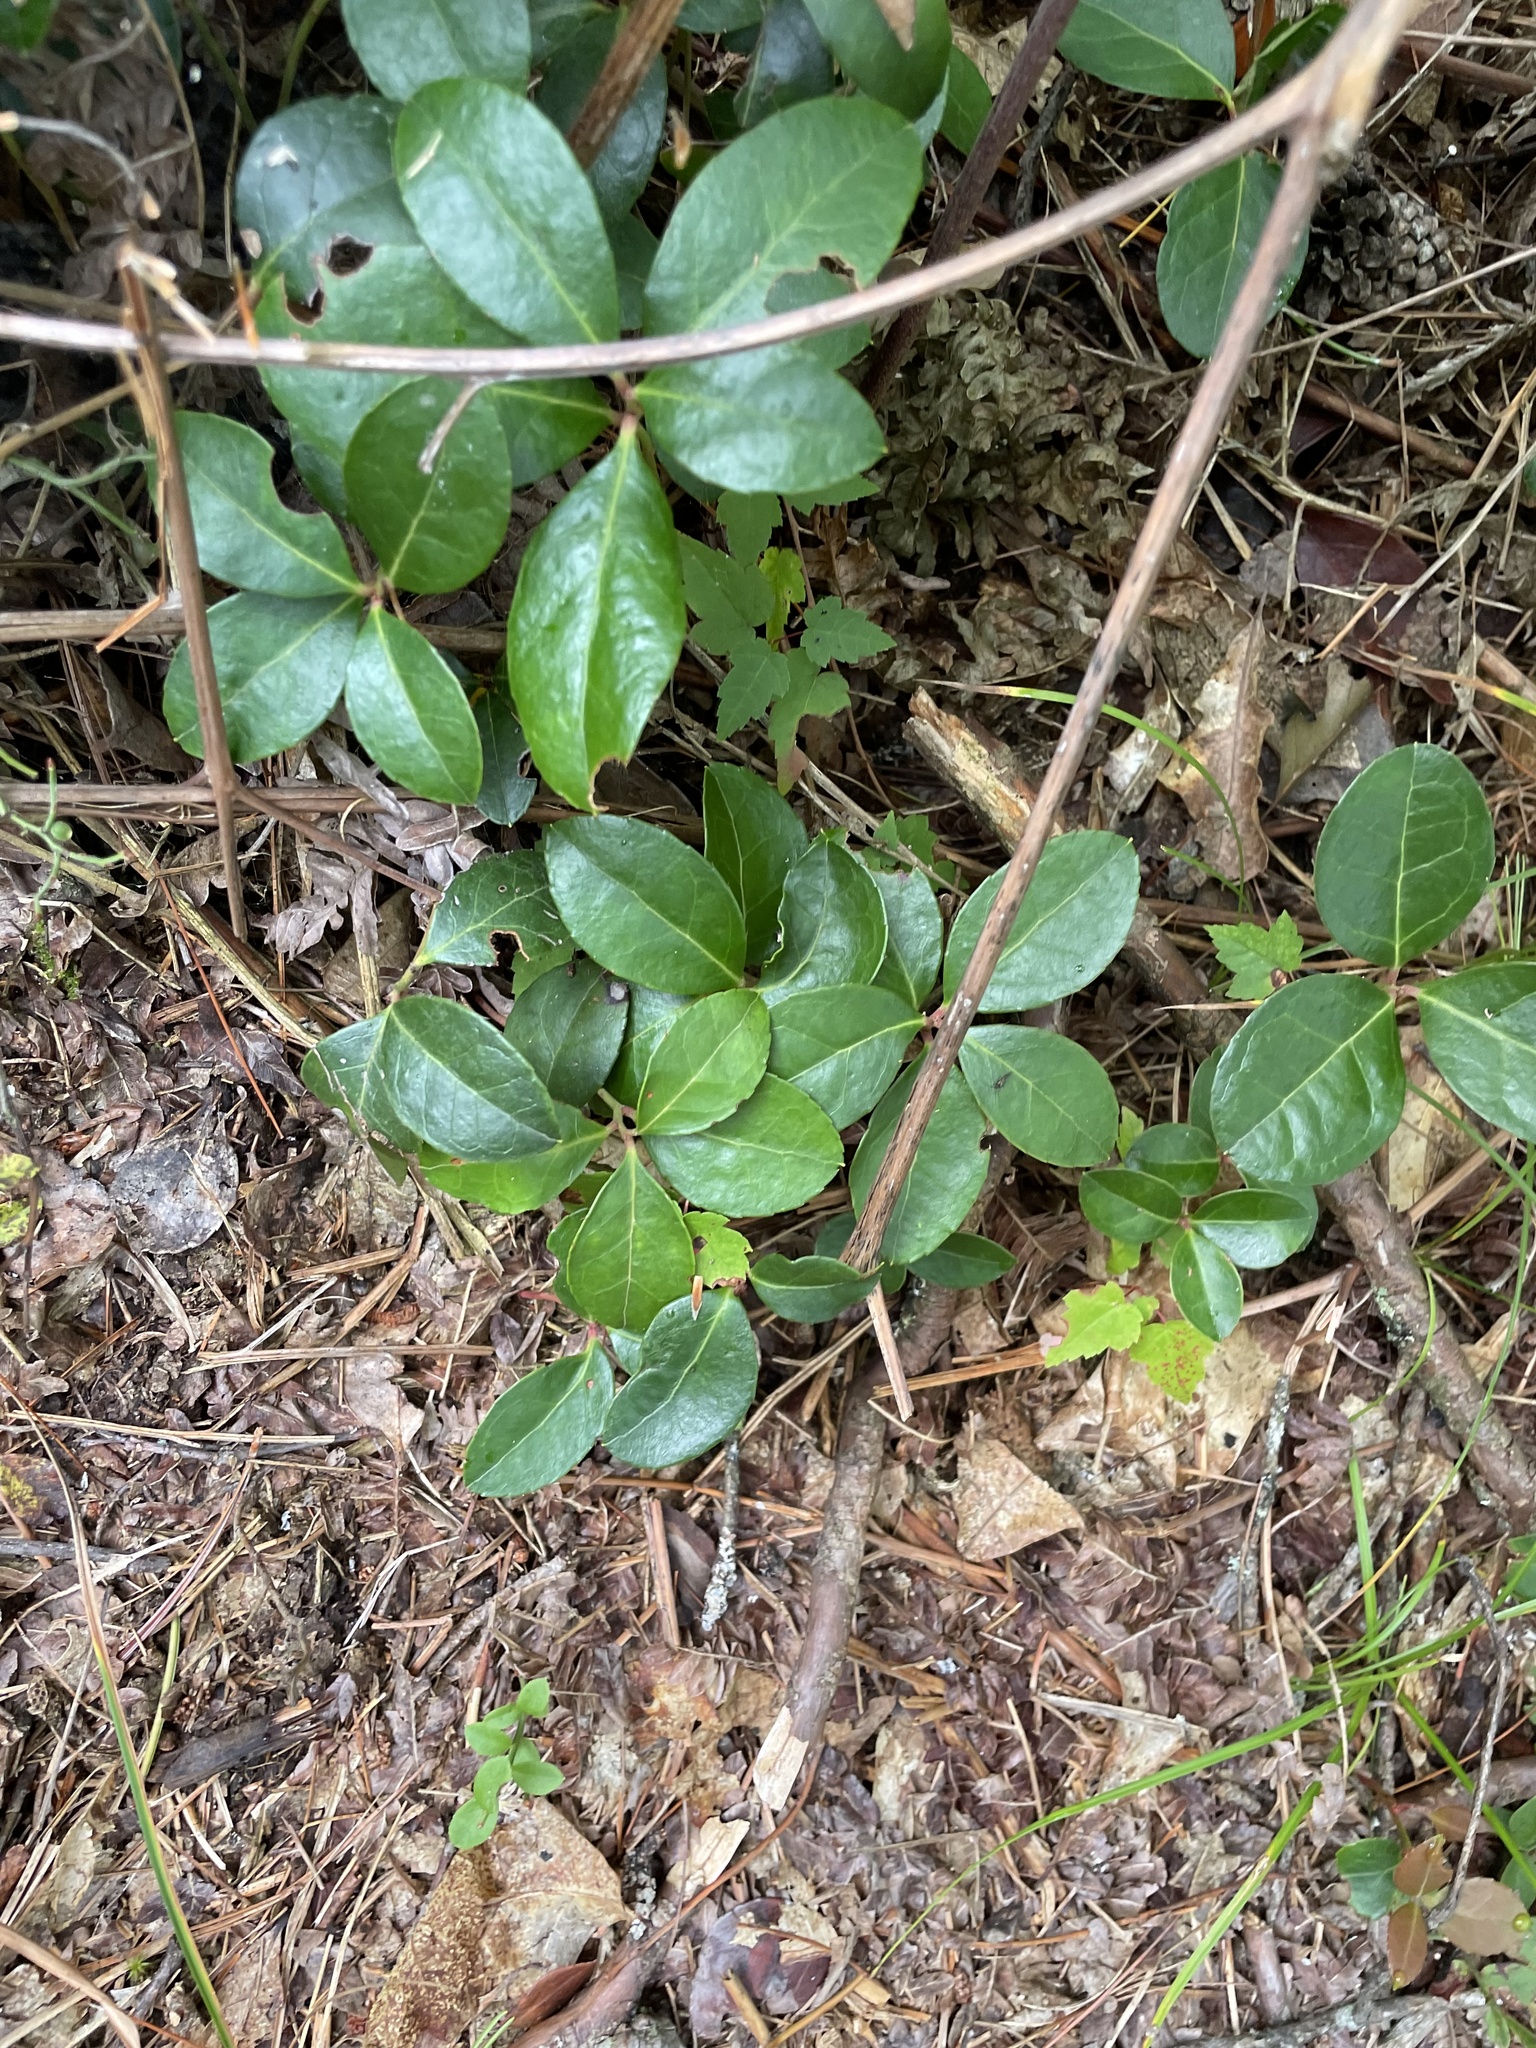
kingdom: Plantae
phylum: Tracheophyta
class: Magnoliopsida
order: Ericales
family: Ericaceae
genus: Gaultheria
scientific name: Gaultheria procumbens
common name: Checkerberry
